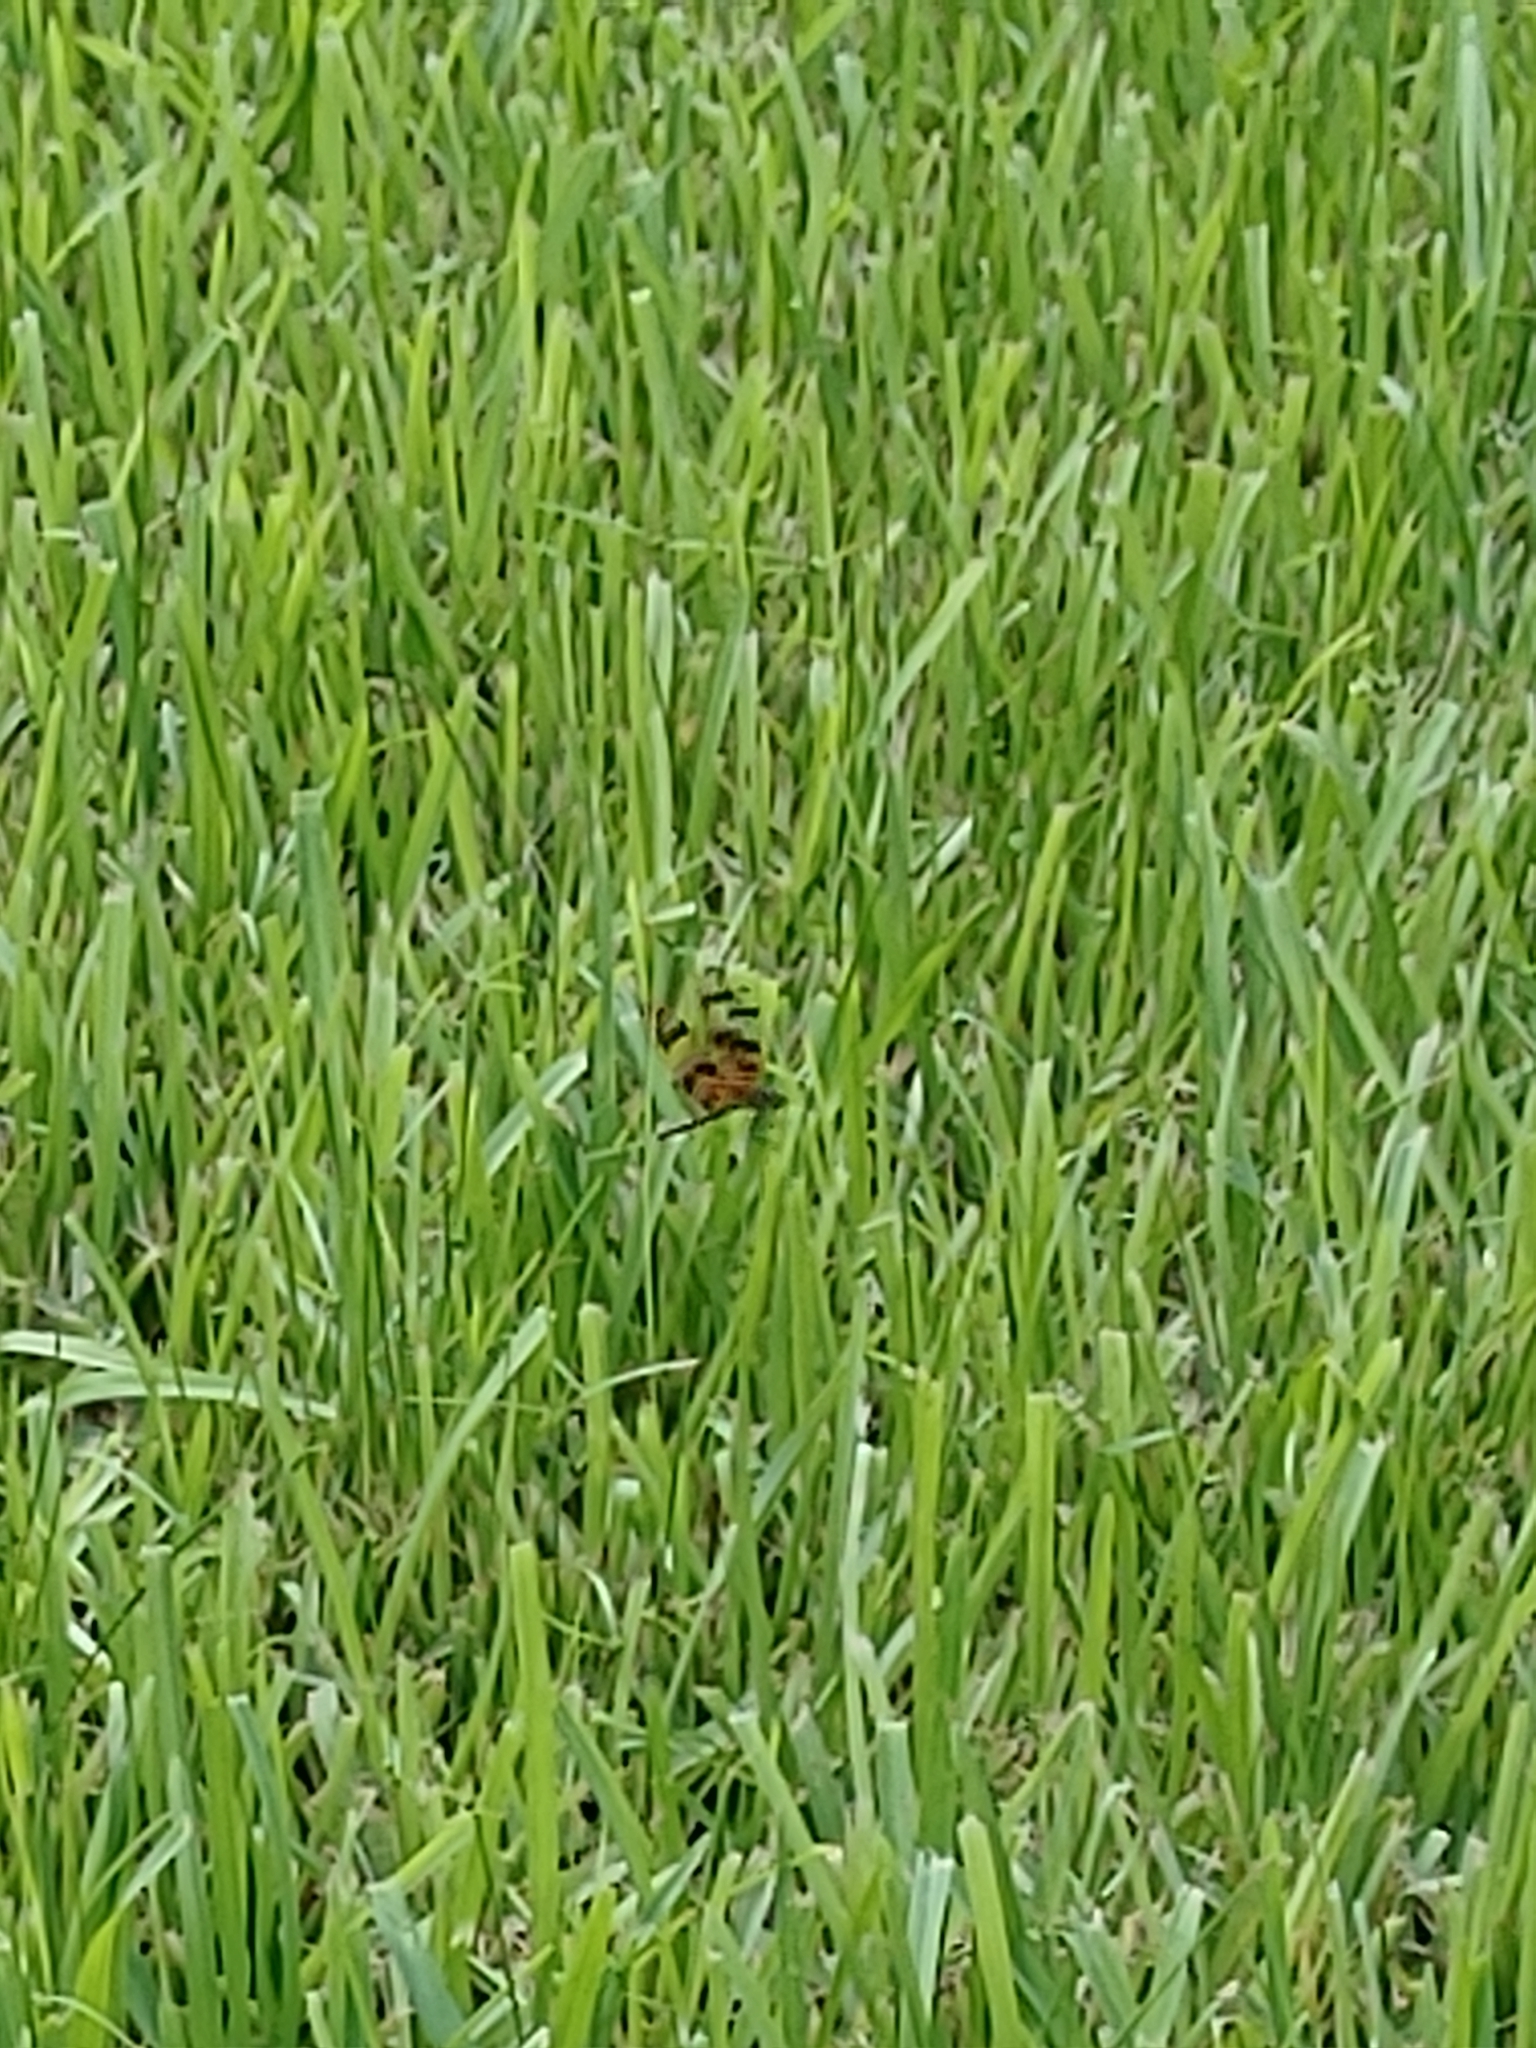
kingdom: Animalia
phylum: Arthropoda
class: Insecta
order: Odonata
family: Libellulidae
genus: Celithemis
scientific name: Celithemis eponina
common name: Halloween pennant
